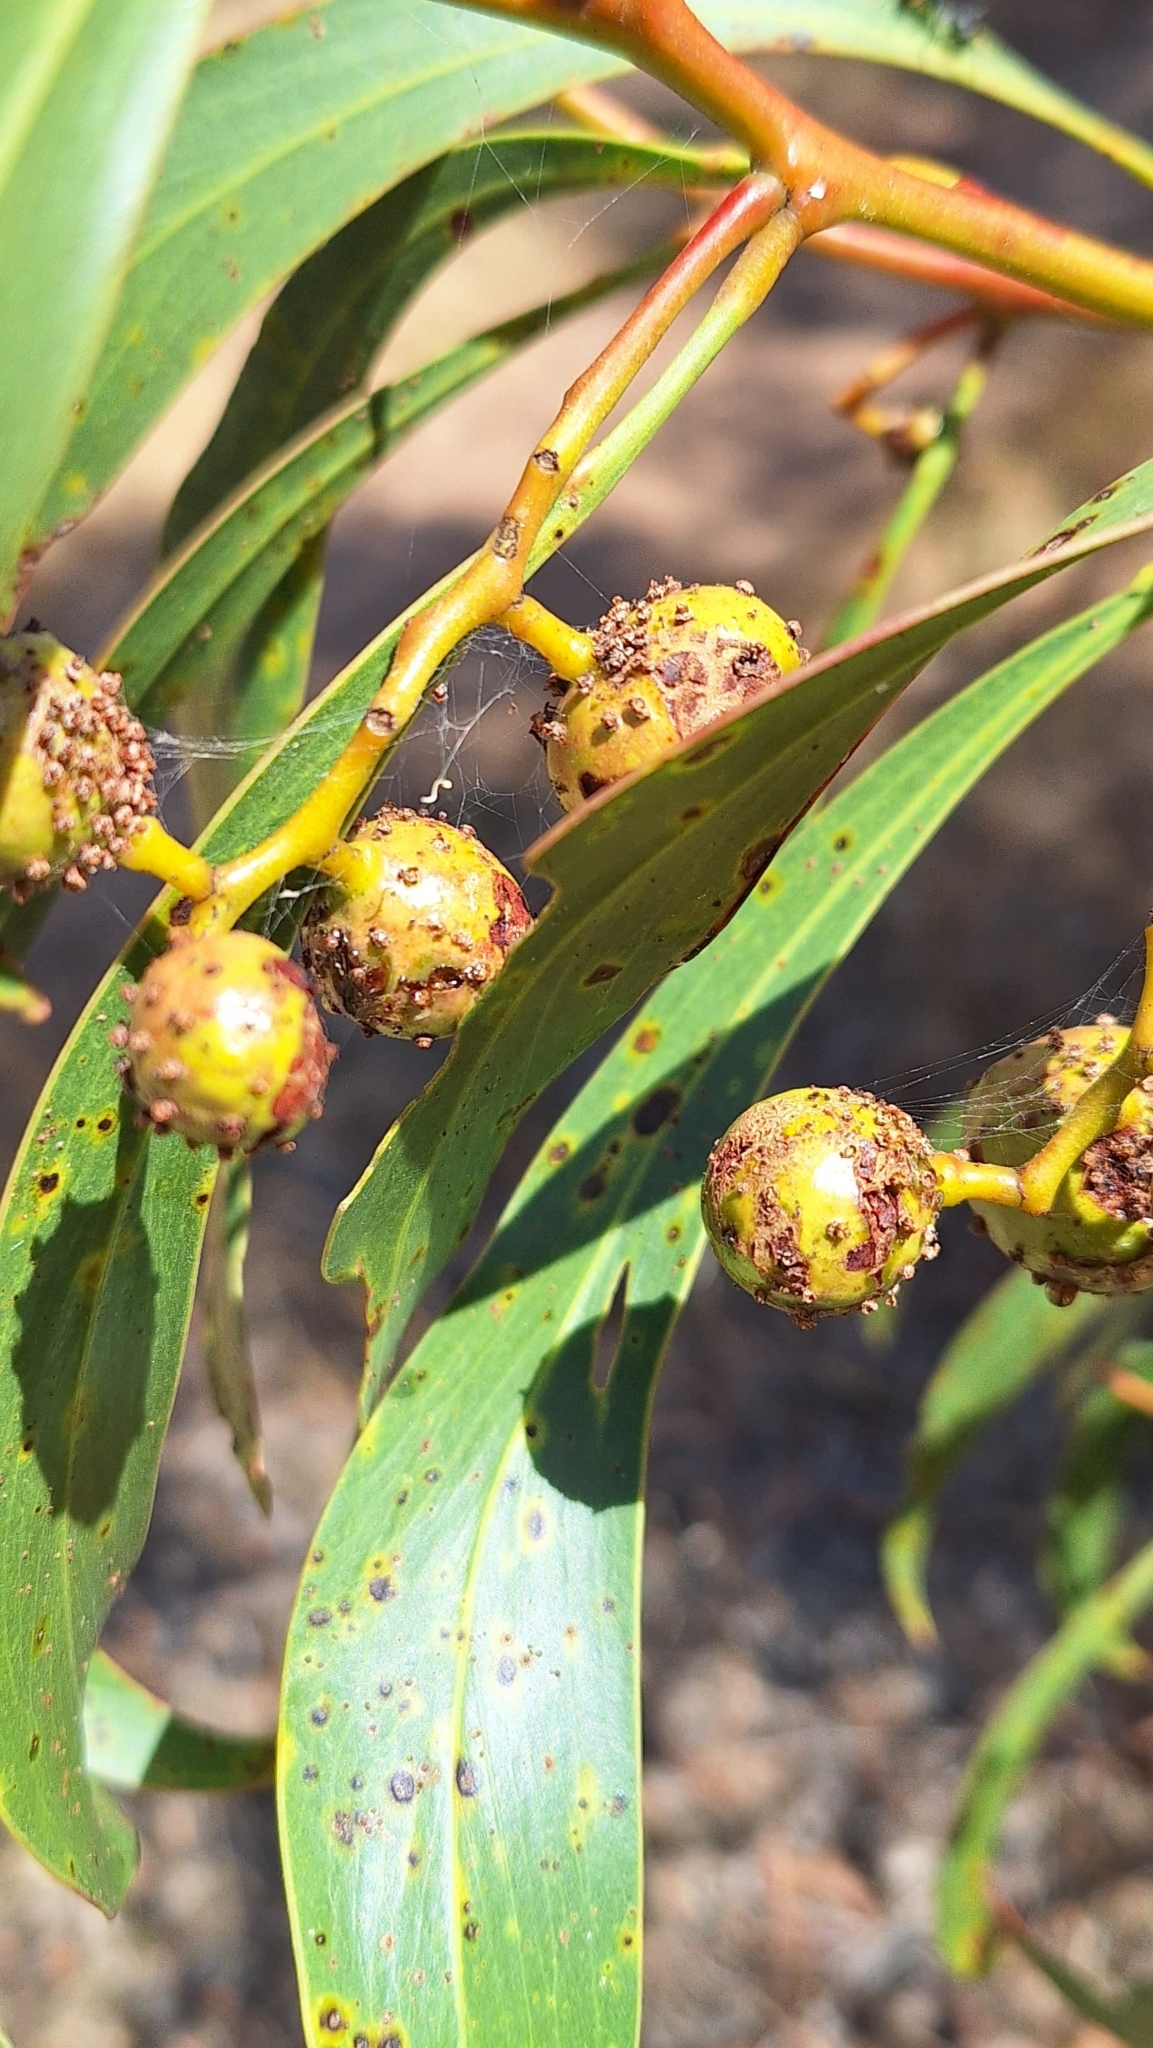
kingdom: Animalia
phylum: Arthropoda
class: Insecta
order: Hymenoptera
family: Pteromalidae
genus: Trichilogaster
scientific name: Trichilogaster signiventris
